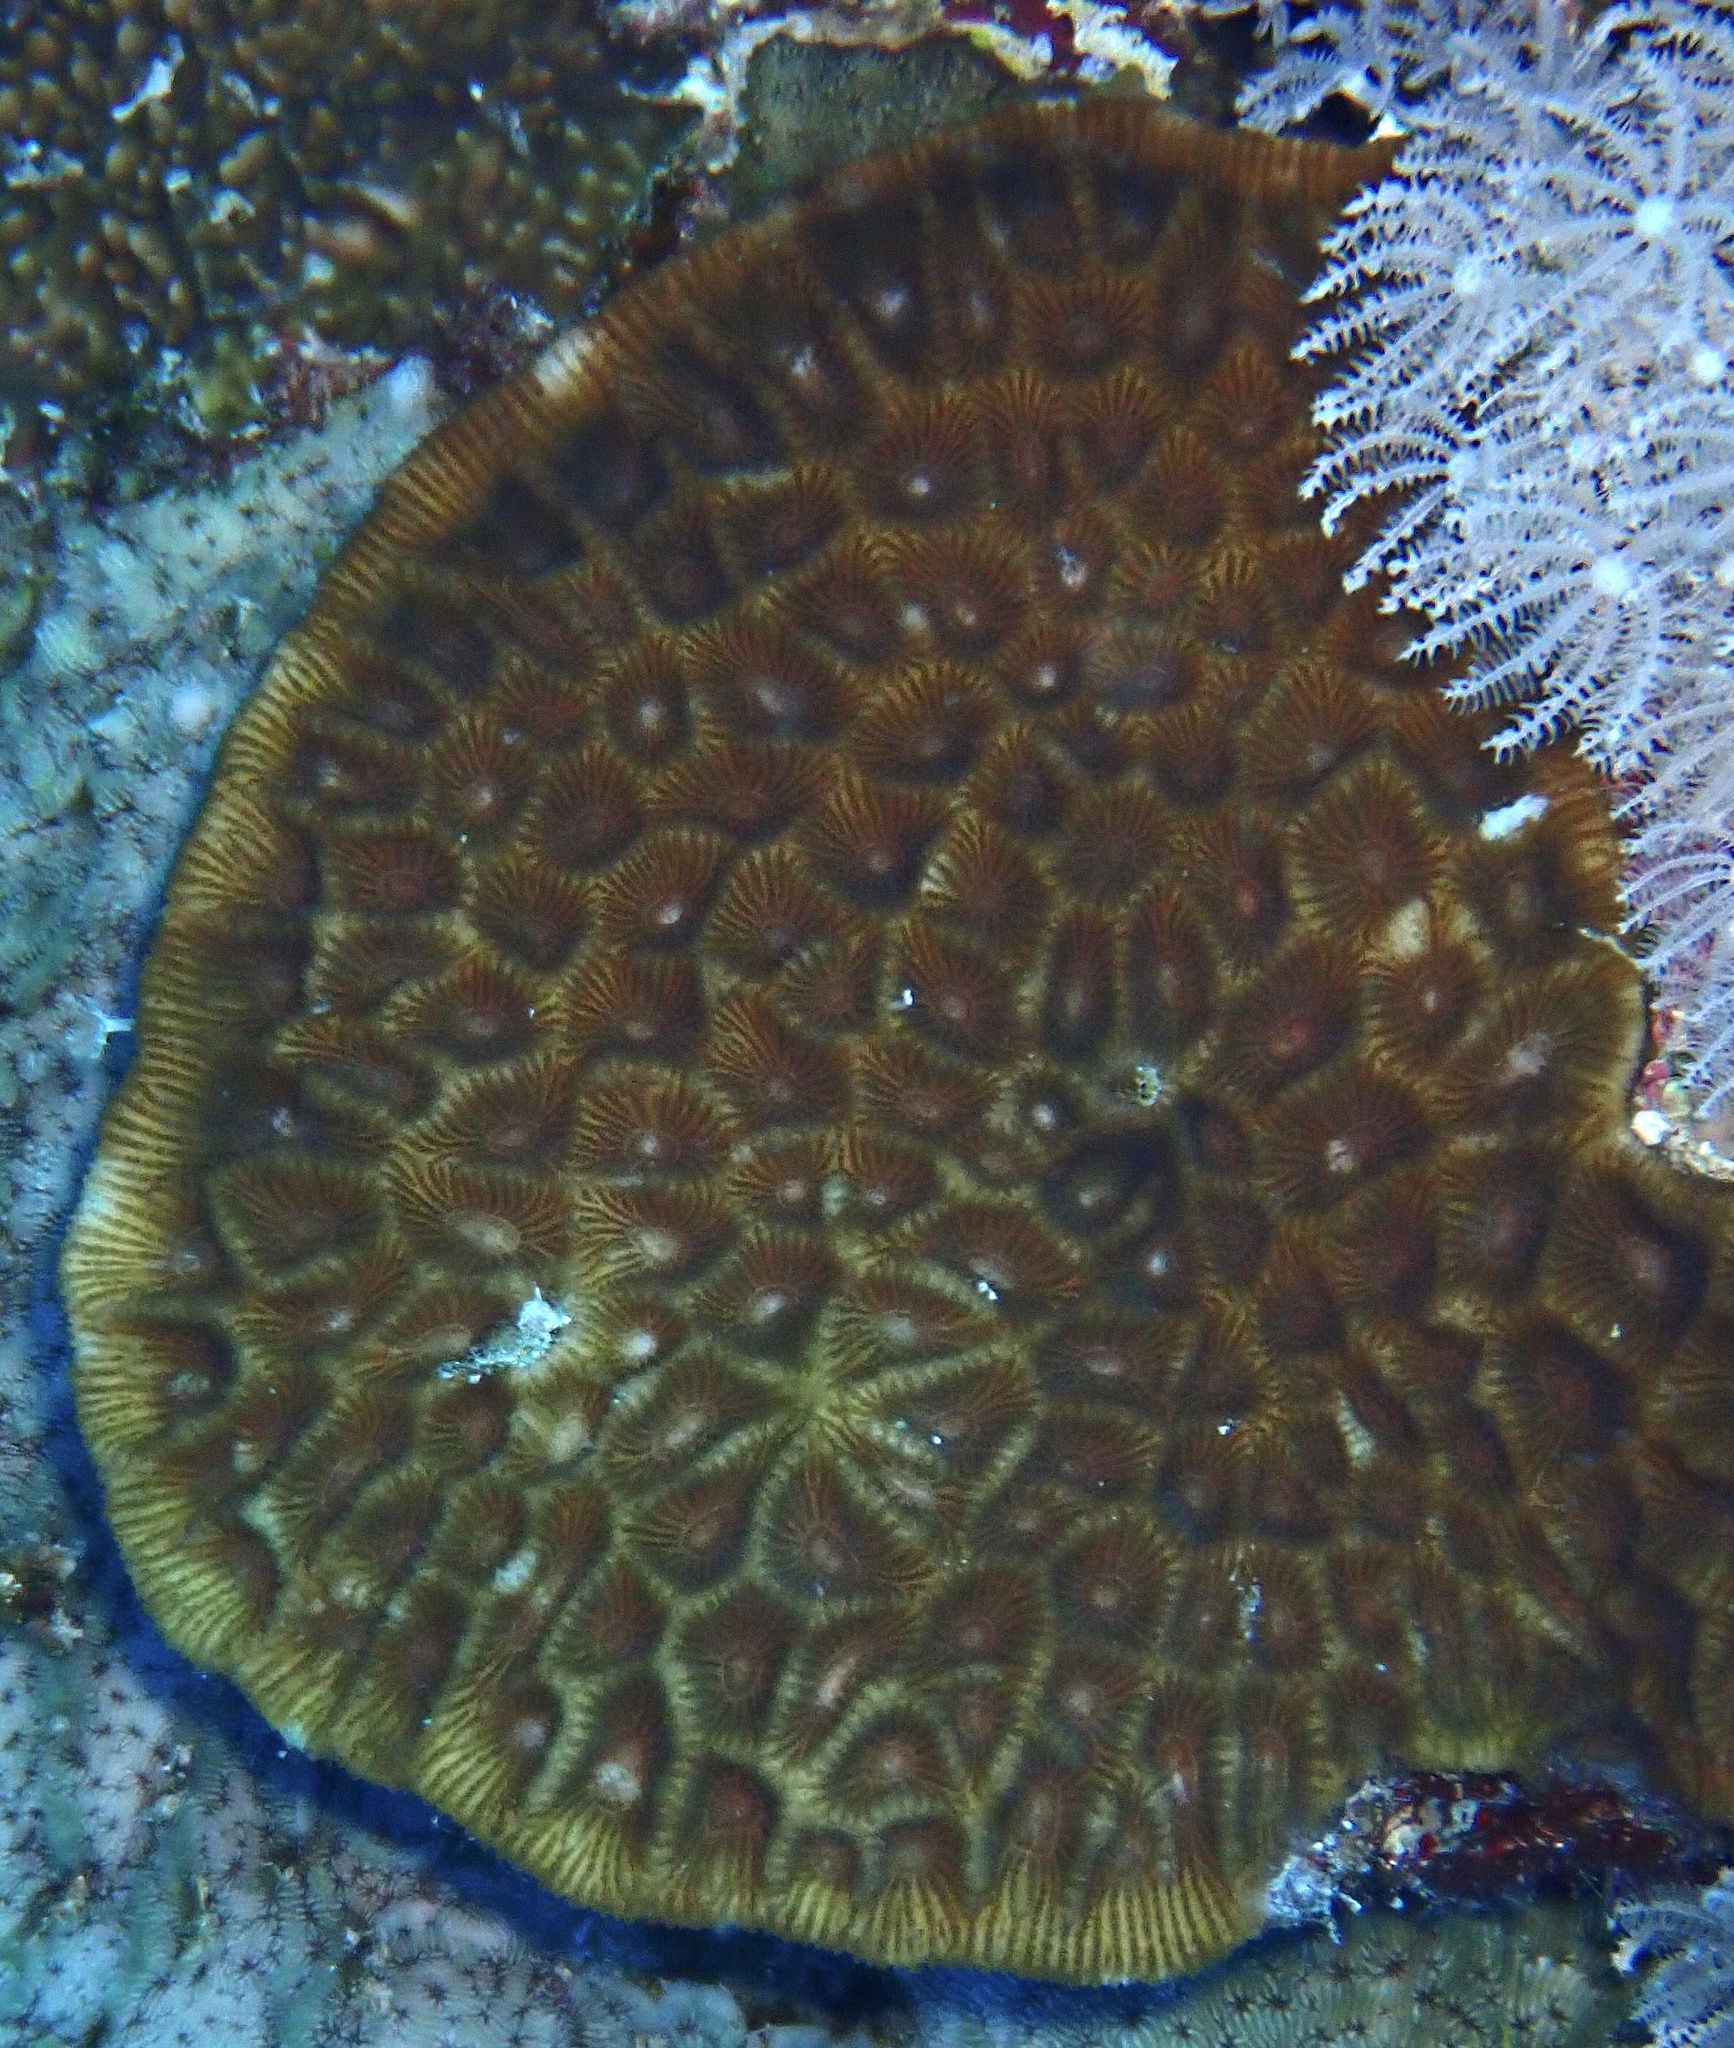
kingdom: Animalia
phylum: Cnidaria
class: Anthozoa
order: Scleractinia
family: Merulinidae
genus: Paramontastraea
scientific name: Paramontastraea peresi
